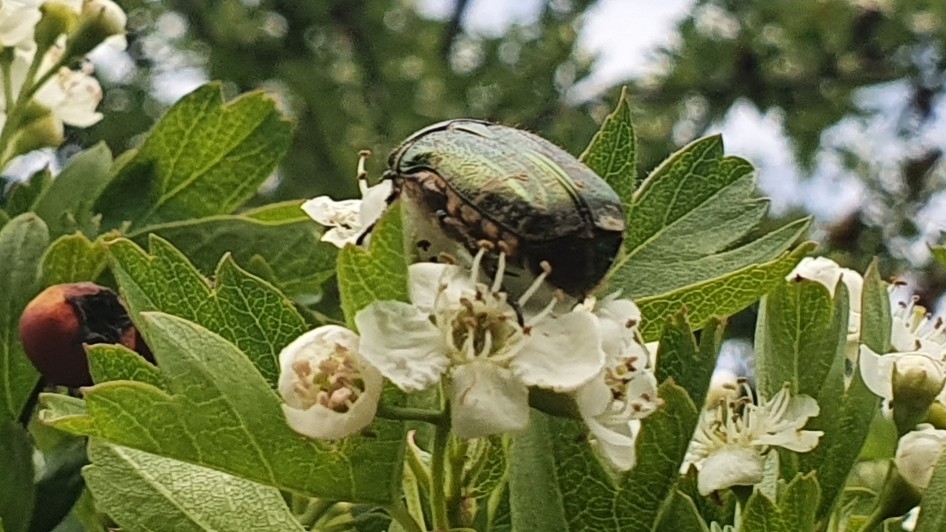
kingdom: Animalia
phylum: Arthropoda
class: Insecta
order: Coleoptera
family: Scarabaeidae
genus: Cetonia
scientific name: Cetonia aurata
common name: Rose chafer
